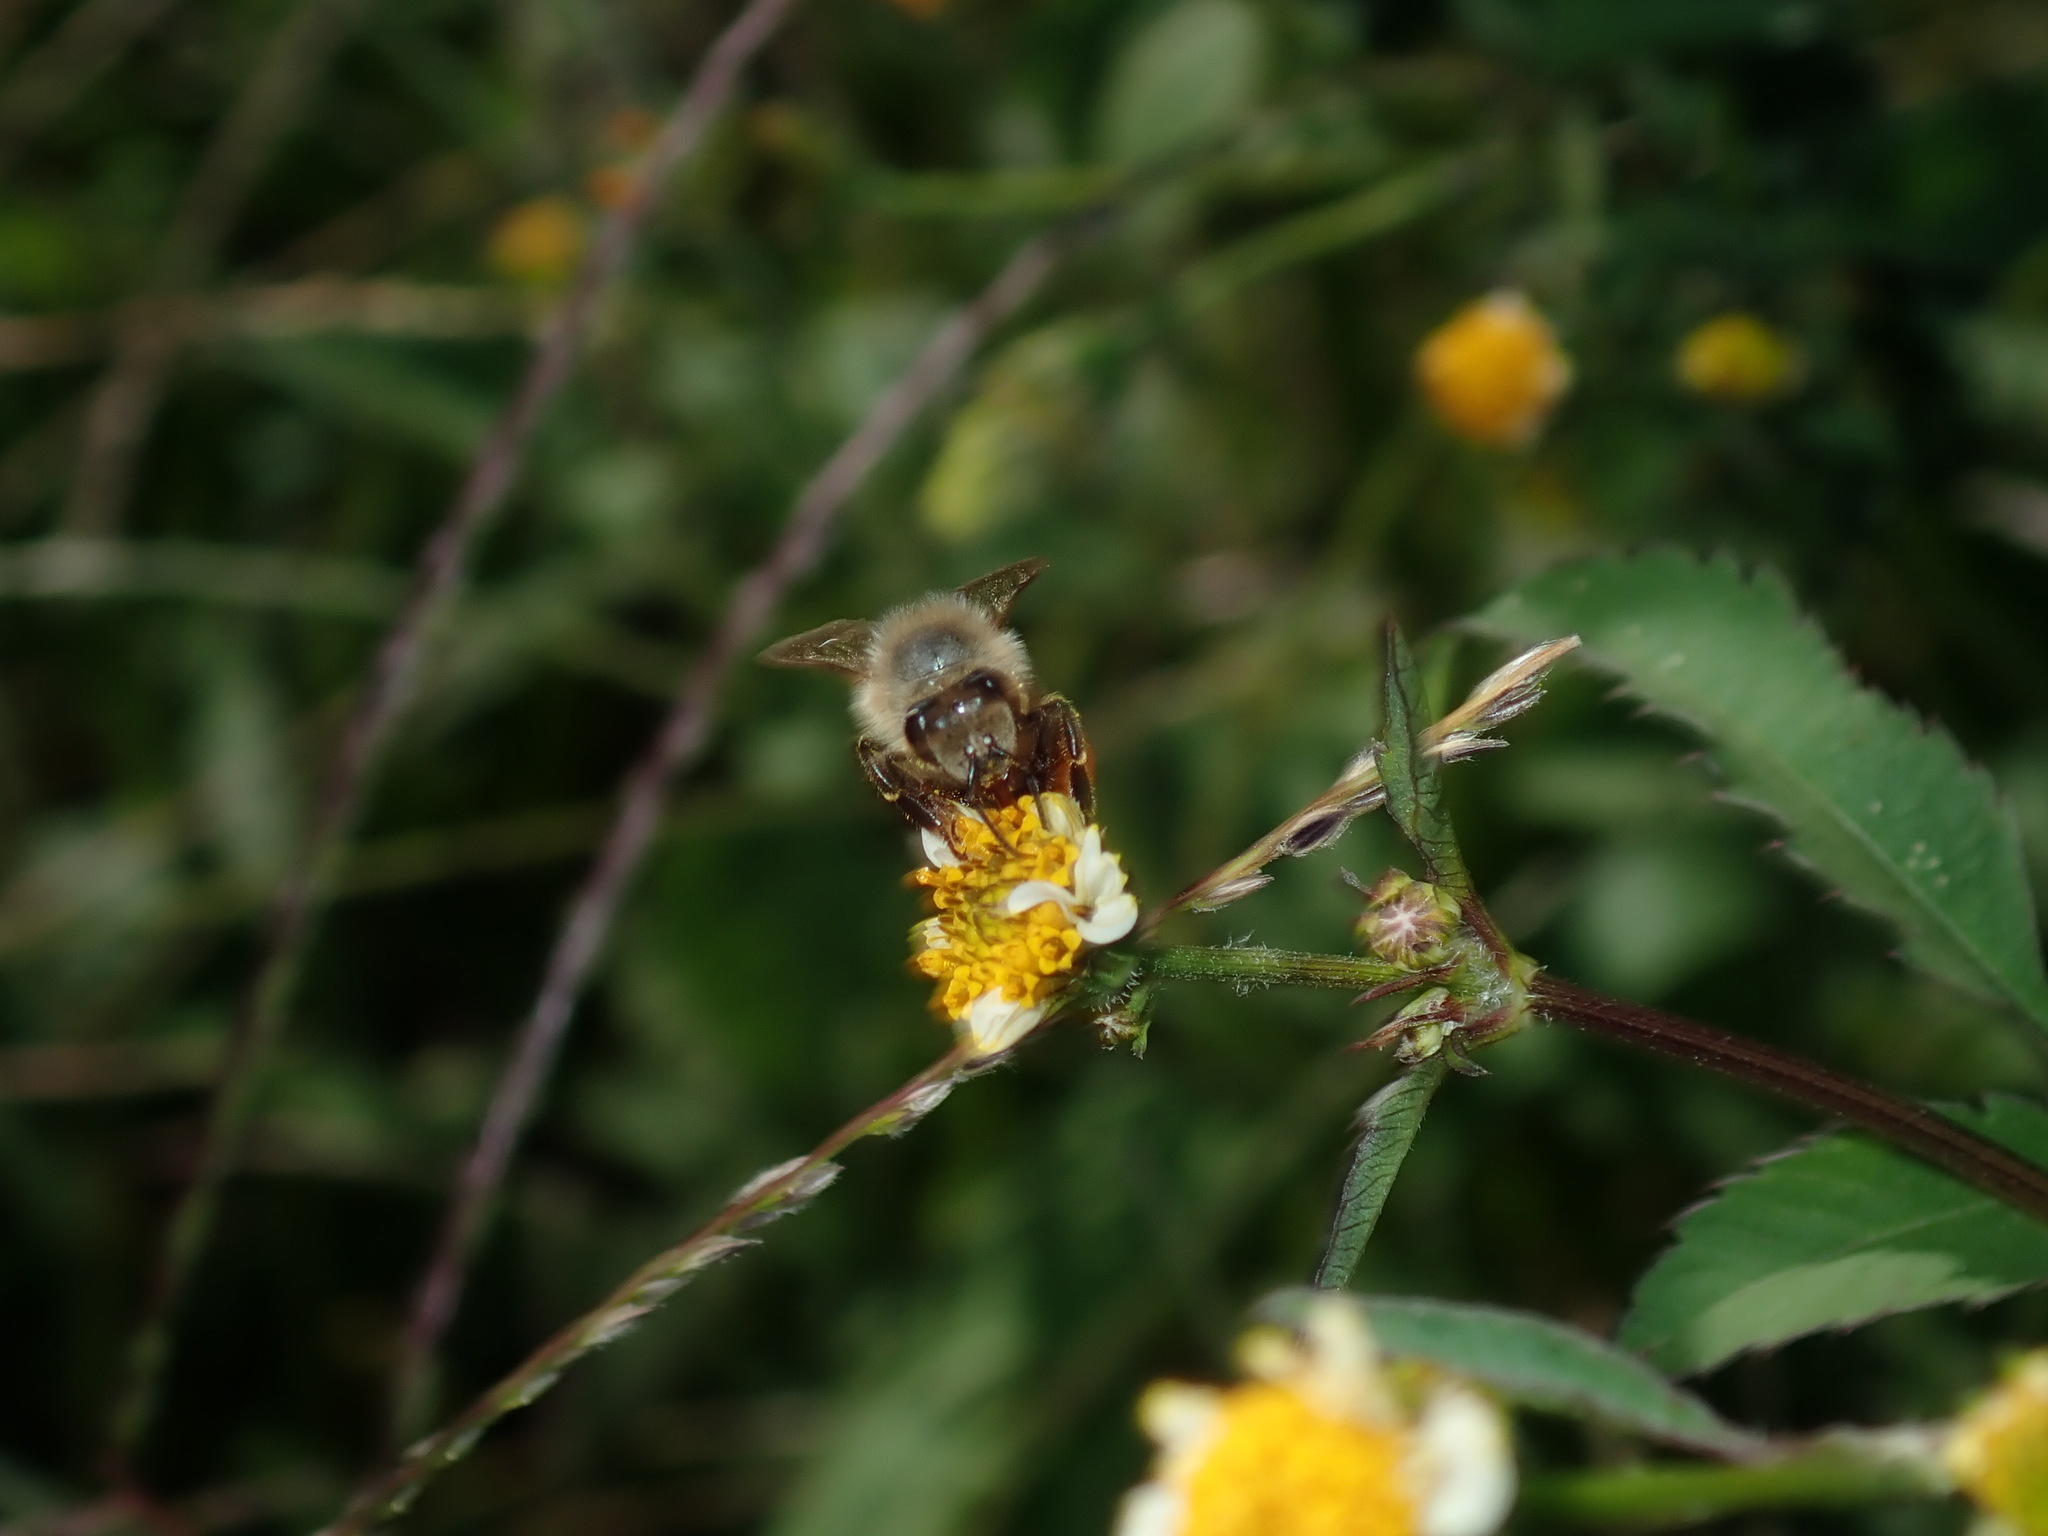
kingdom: Animalia
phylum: Arthropoda
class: Insecta
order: Hymenoptera
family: Apidae
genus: Apis
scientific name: Apis mellifera
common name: Honey bee
